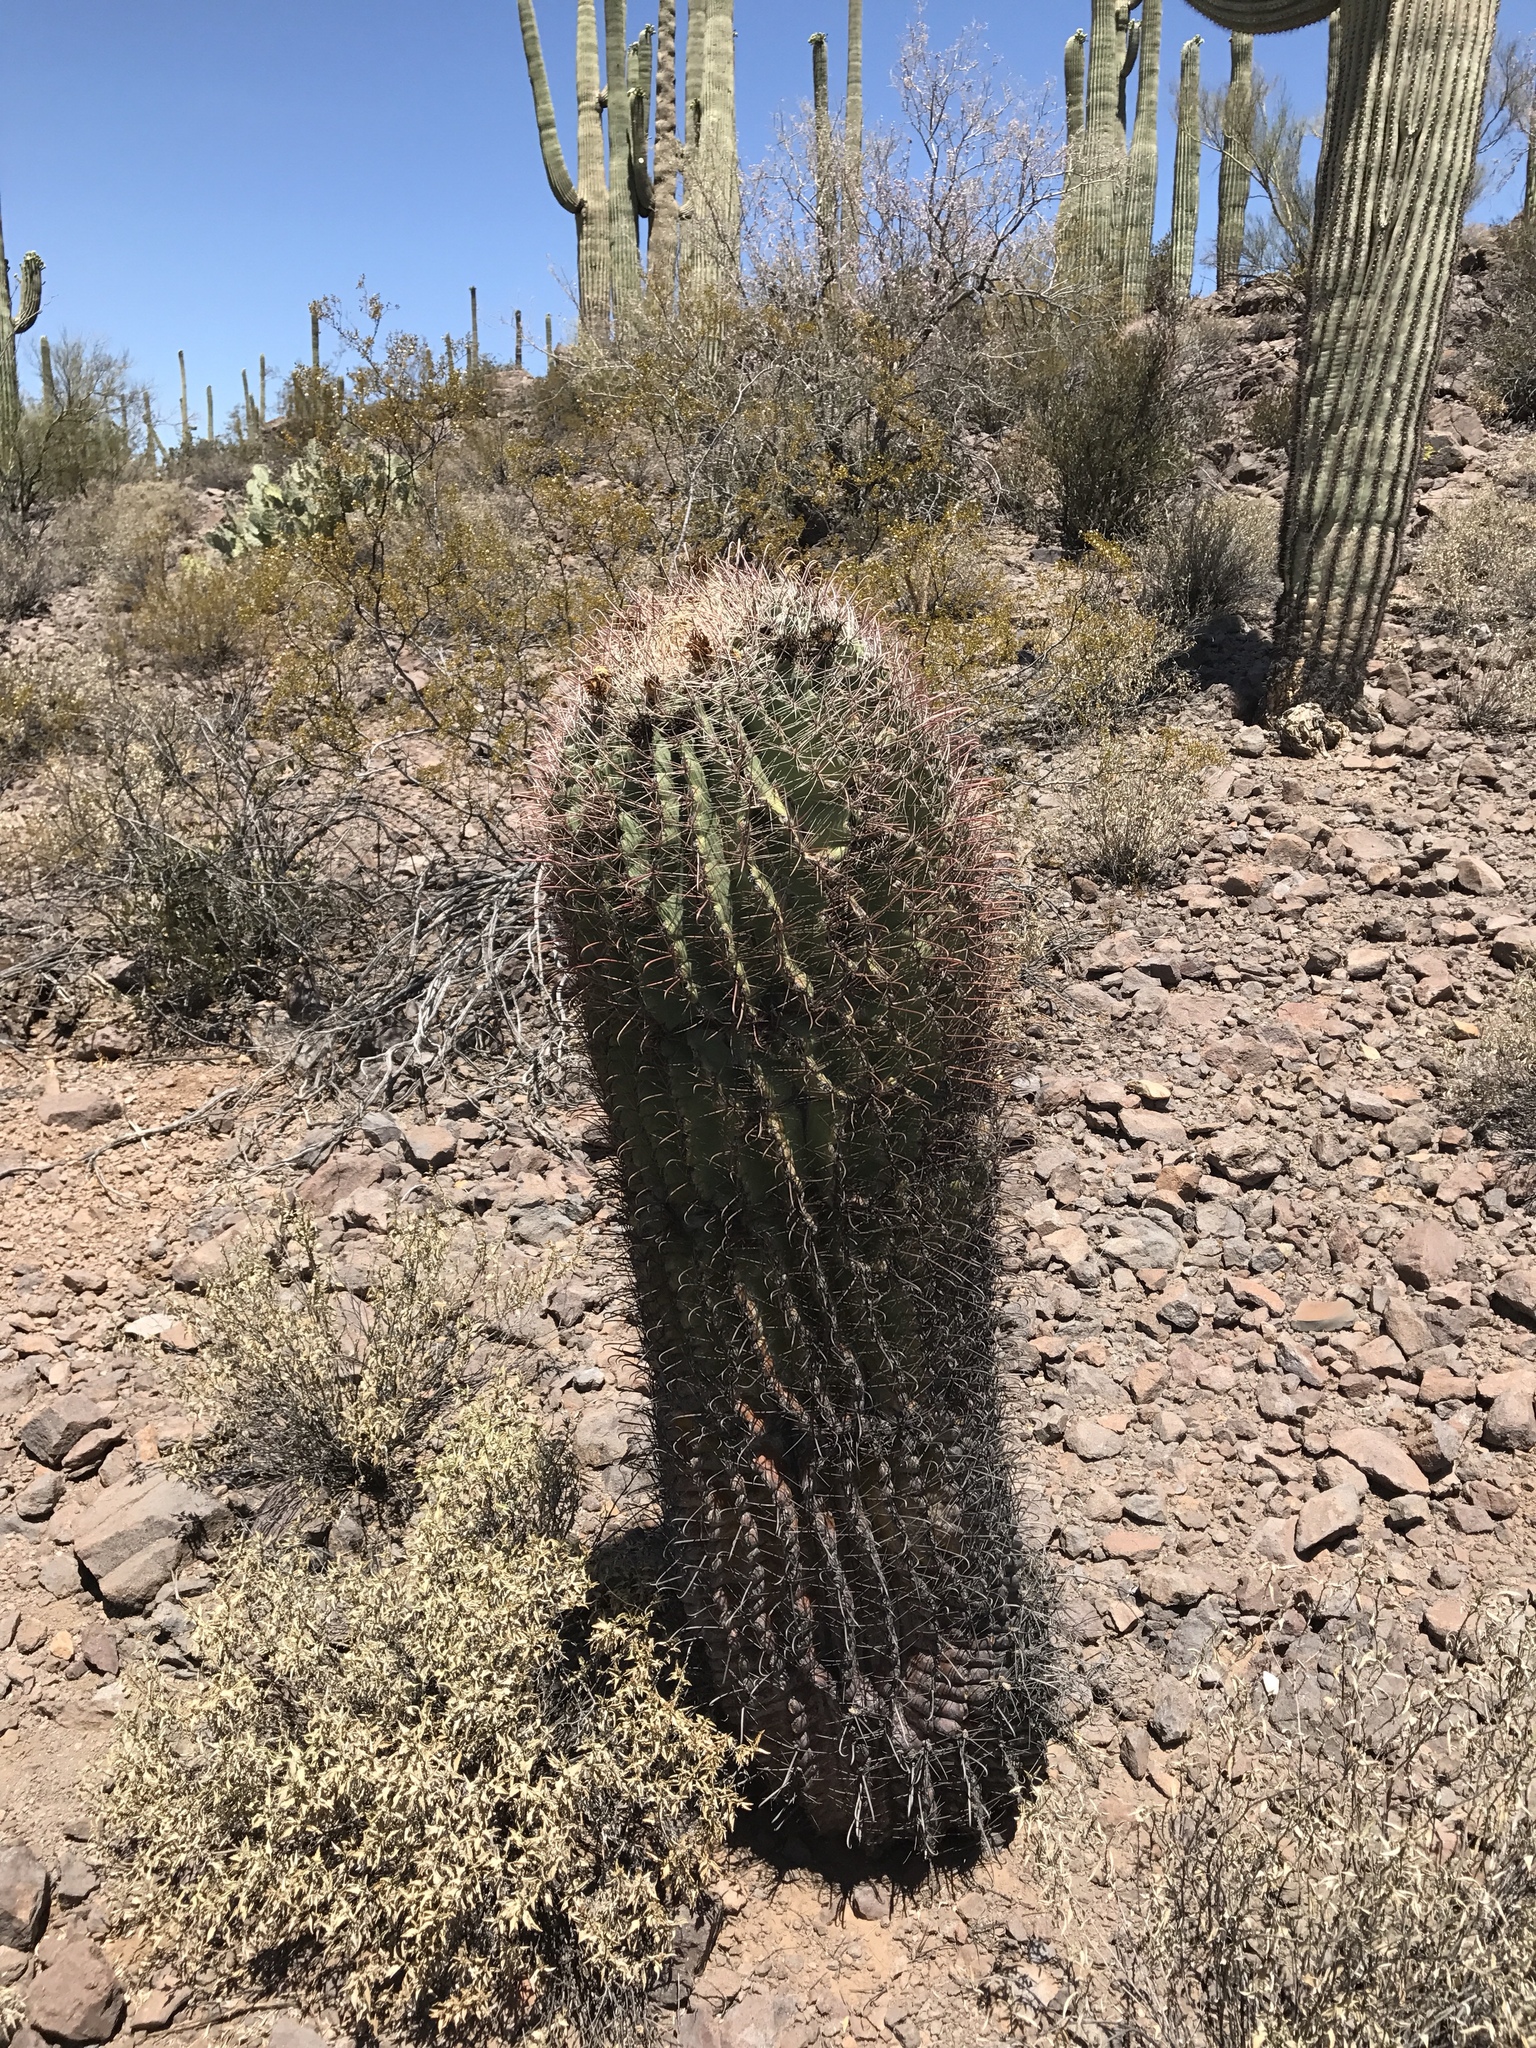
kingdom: Plantae
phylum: Tracheophyta
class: Magnoliopsida
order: Caryophyllales
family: Cactaceae
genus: Ferocactus
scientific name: Ferocactus wislizeni
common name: Candy barrel cactus
